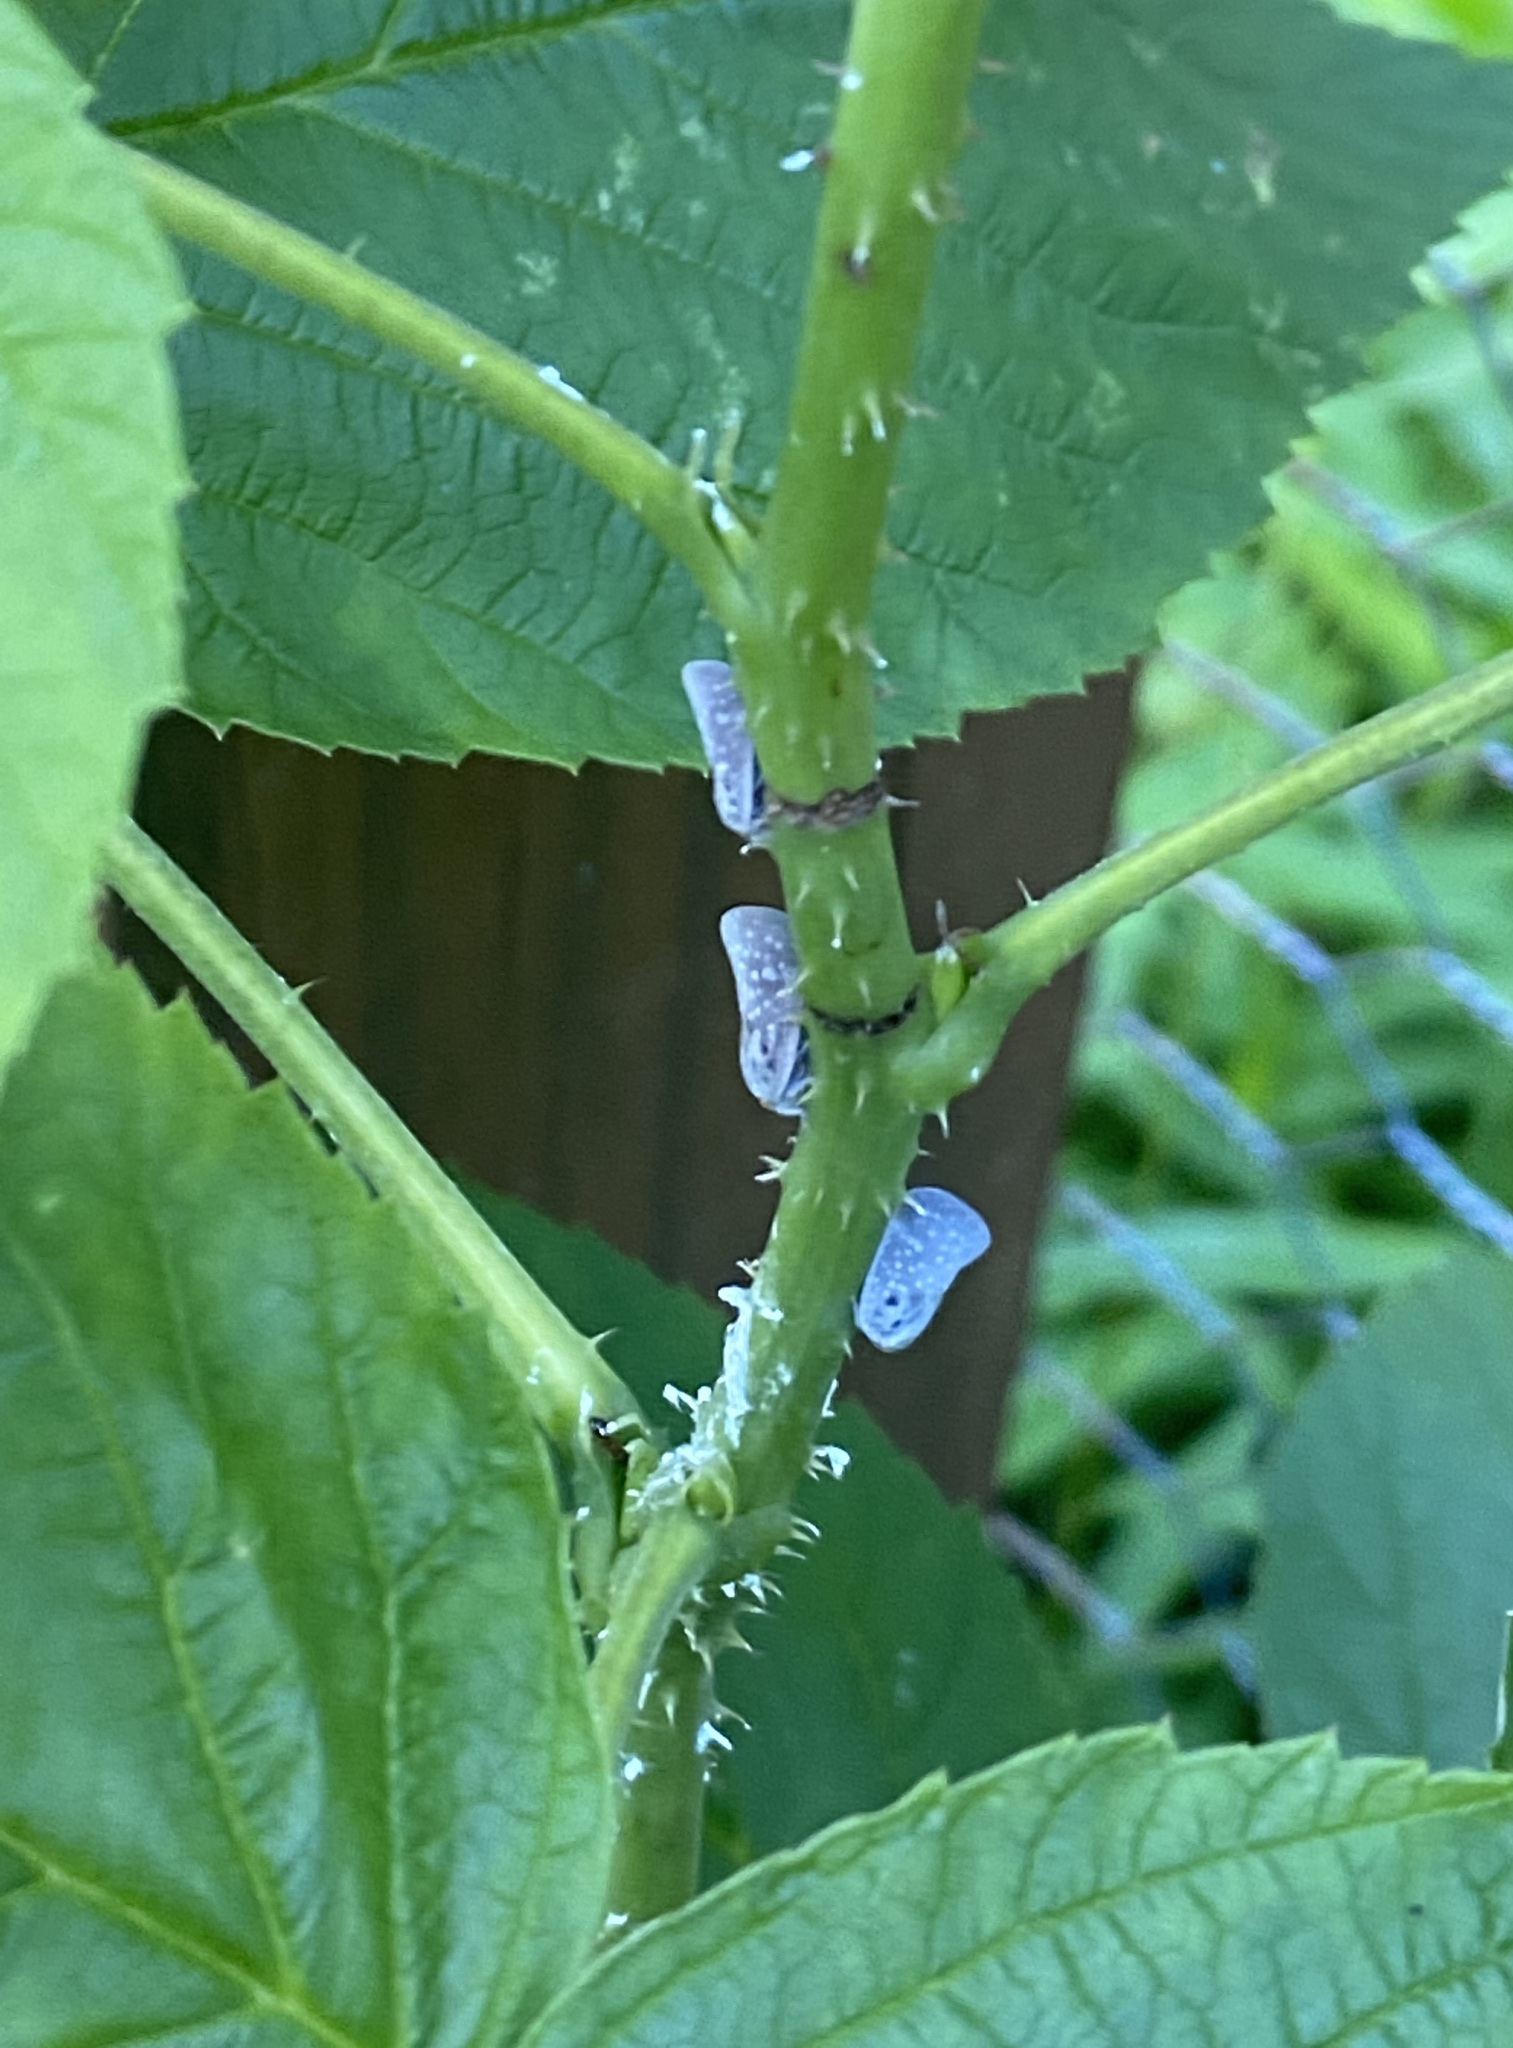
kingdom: Animalia
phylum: Arthropoda
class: Insecta
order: Hemiptera
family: Flatidae
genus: Metcalfa
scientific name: Metcalfa pruinosa
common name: Citrus flatid planthopper
